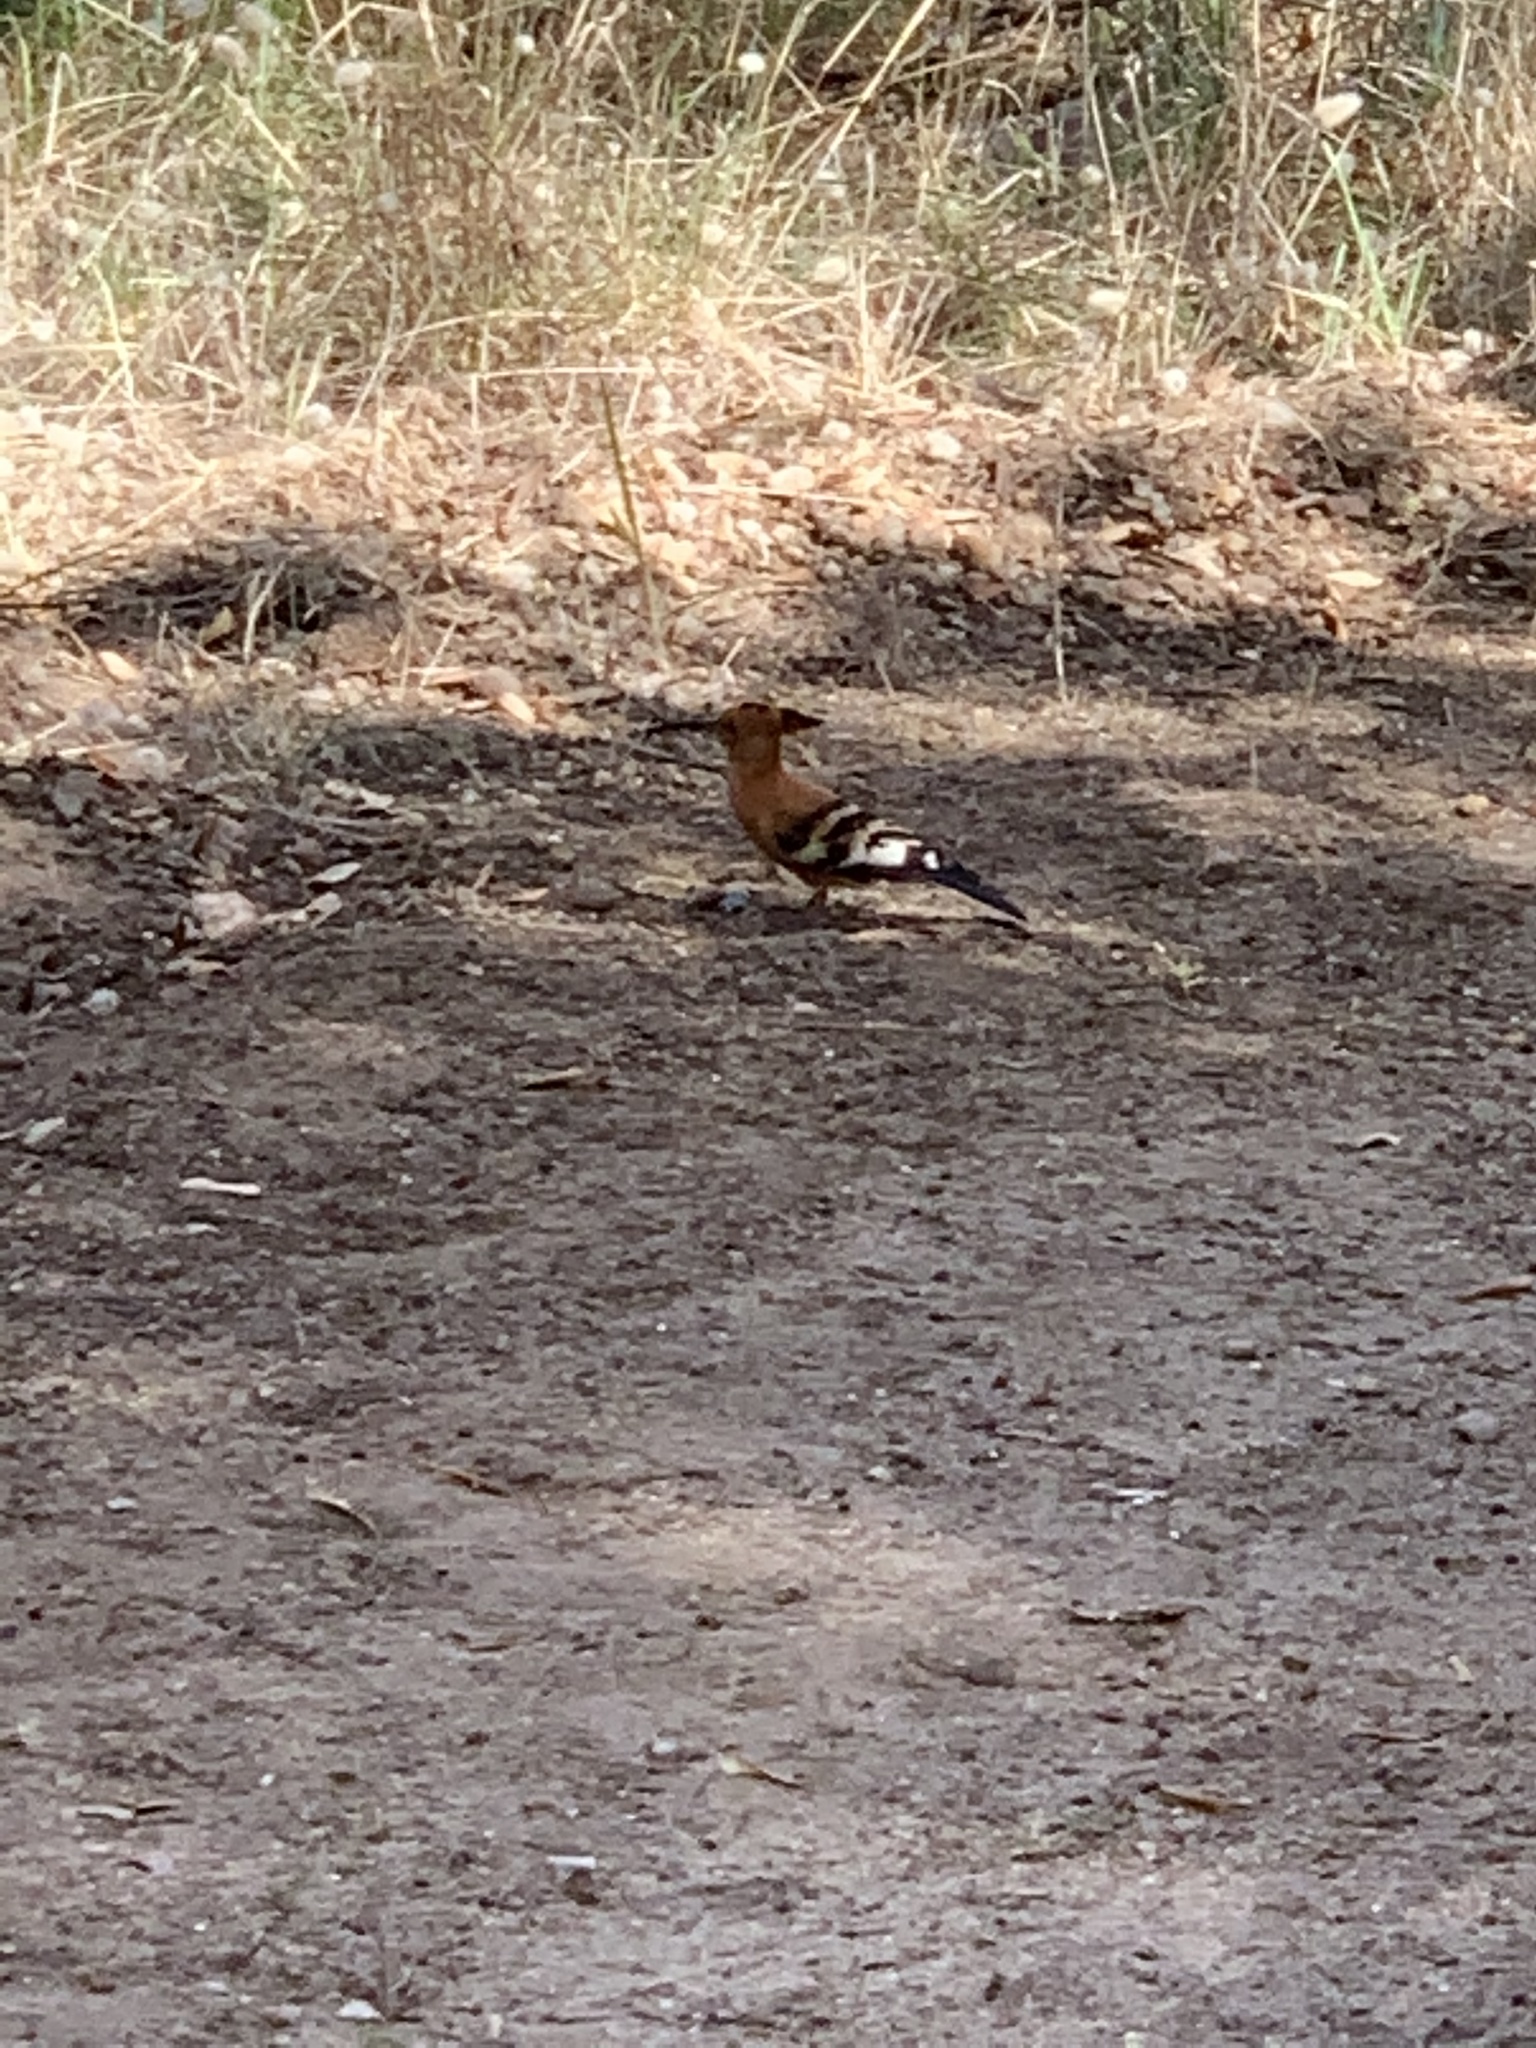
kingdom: Animalia
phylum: Chordata
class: Aves
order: Bucerotiformes
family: Upupidae
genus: Upupa
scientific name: Upupa africana
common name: African hoopoe
